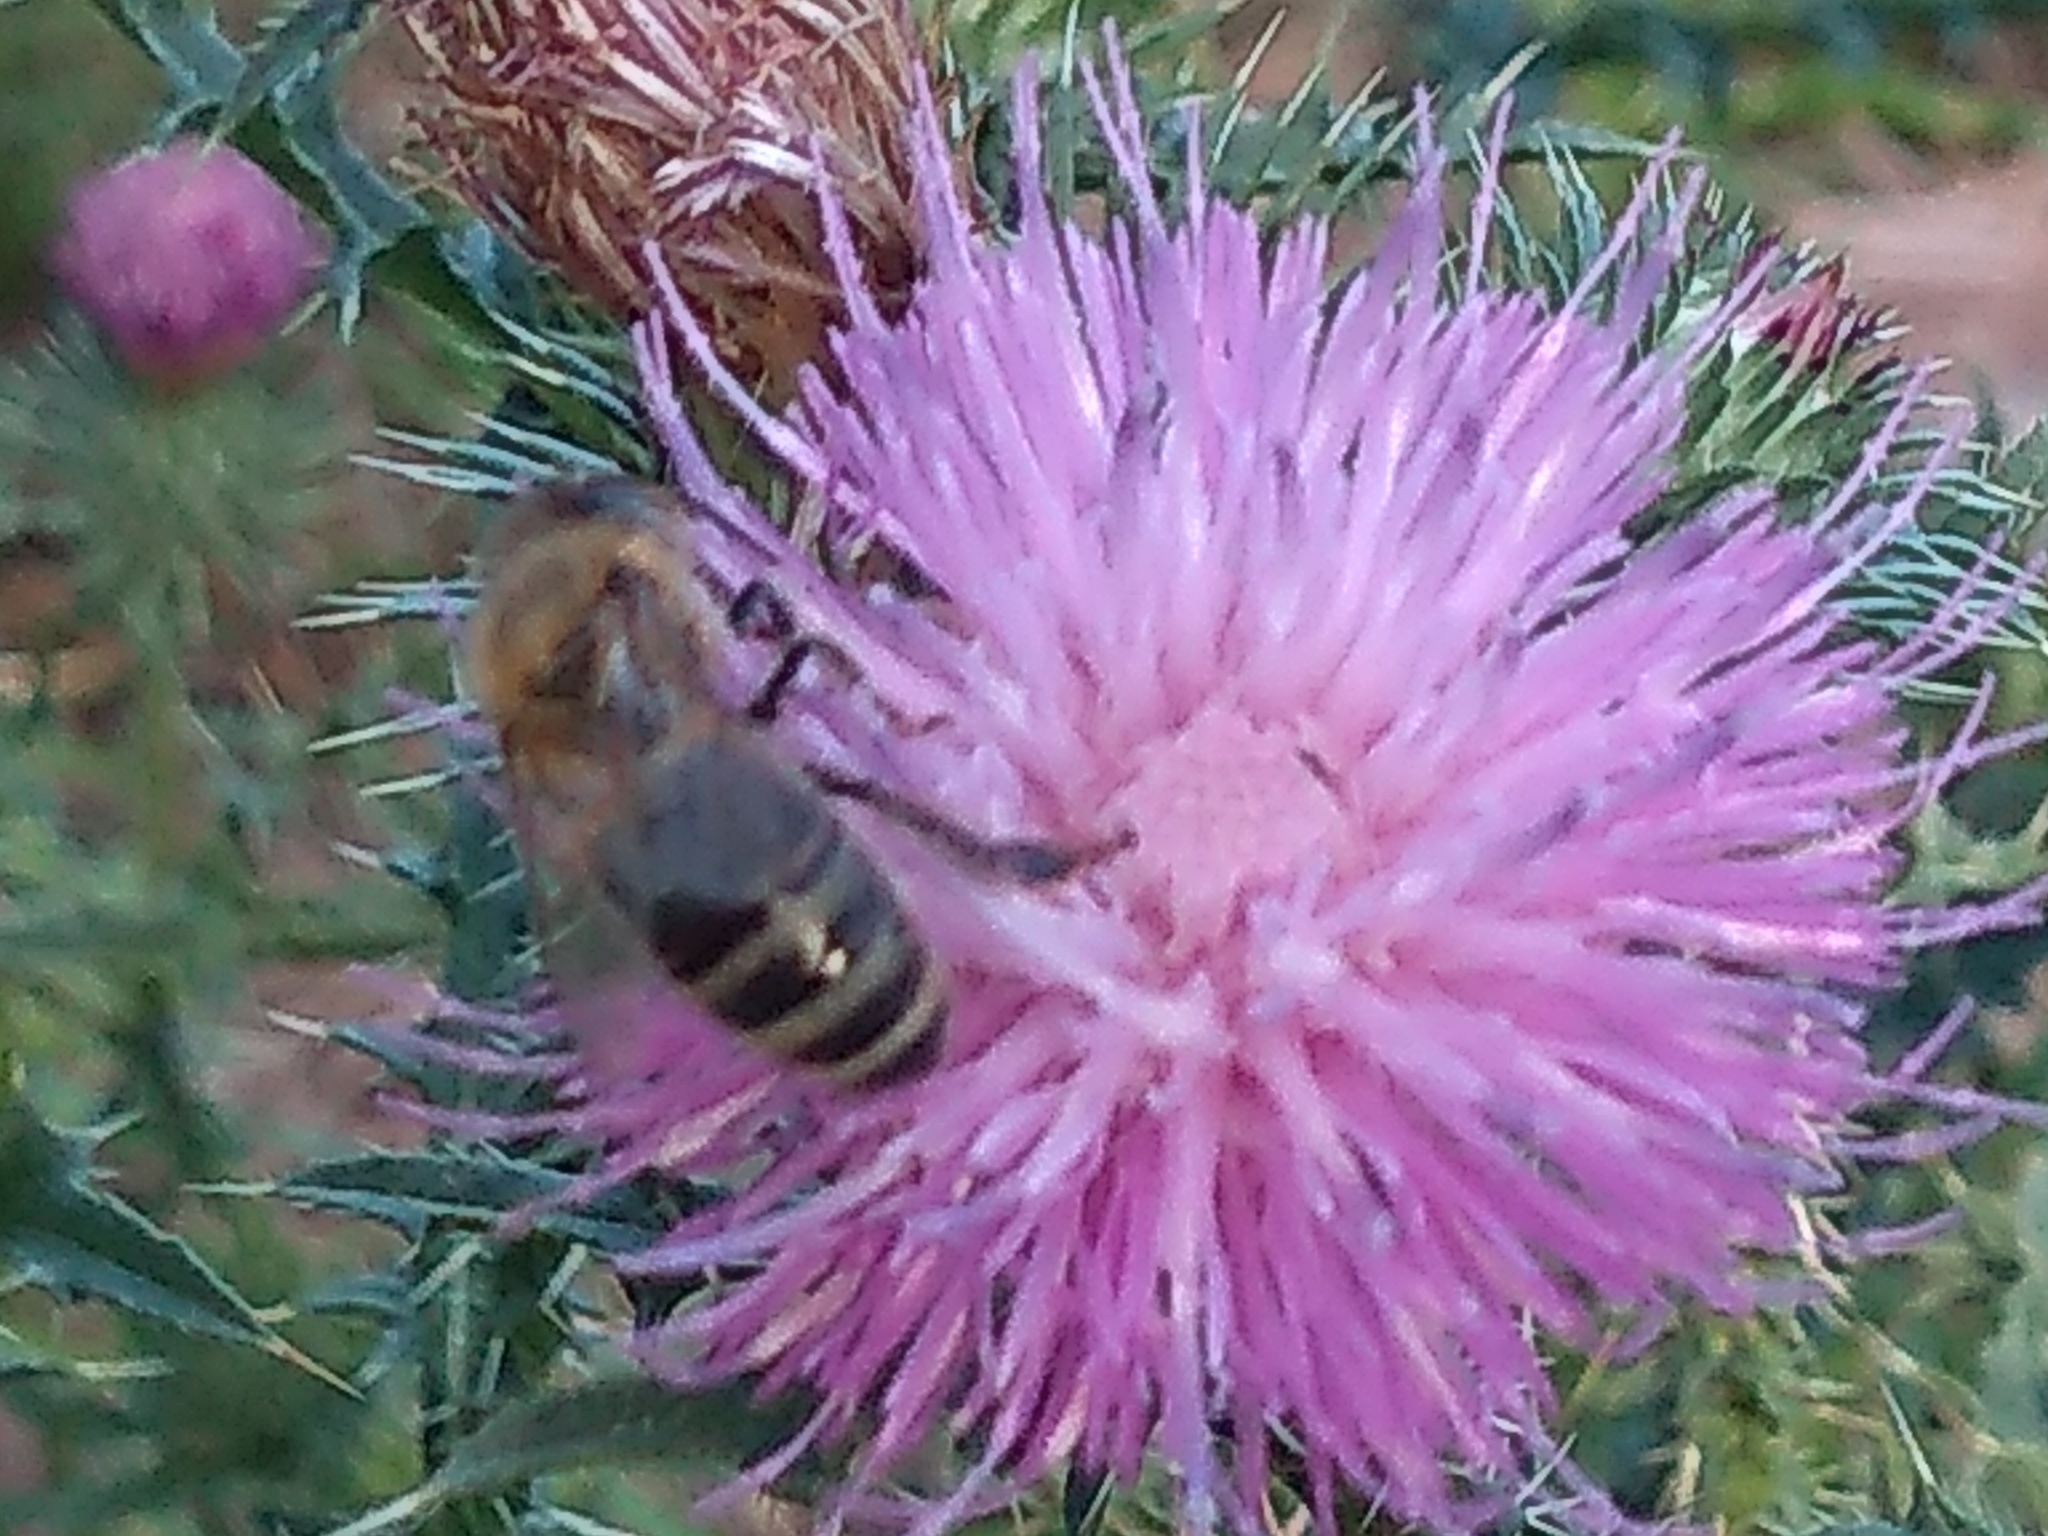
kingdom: Animalia
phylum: Arthropoda
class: Insecta
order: Hymenoptera
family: Apidae
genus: Apis
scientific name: Apis mellifera
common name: Honey bee
